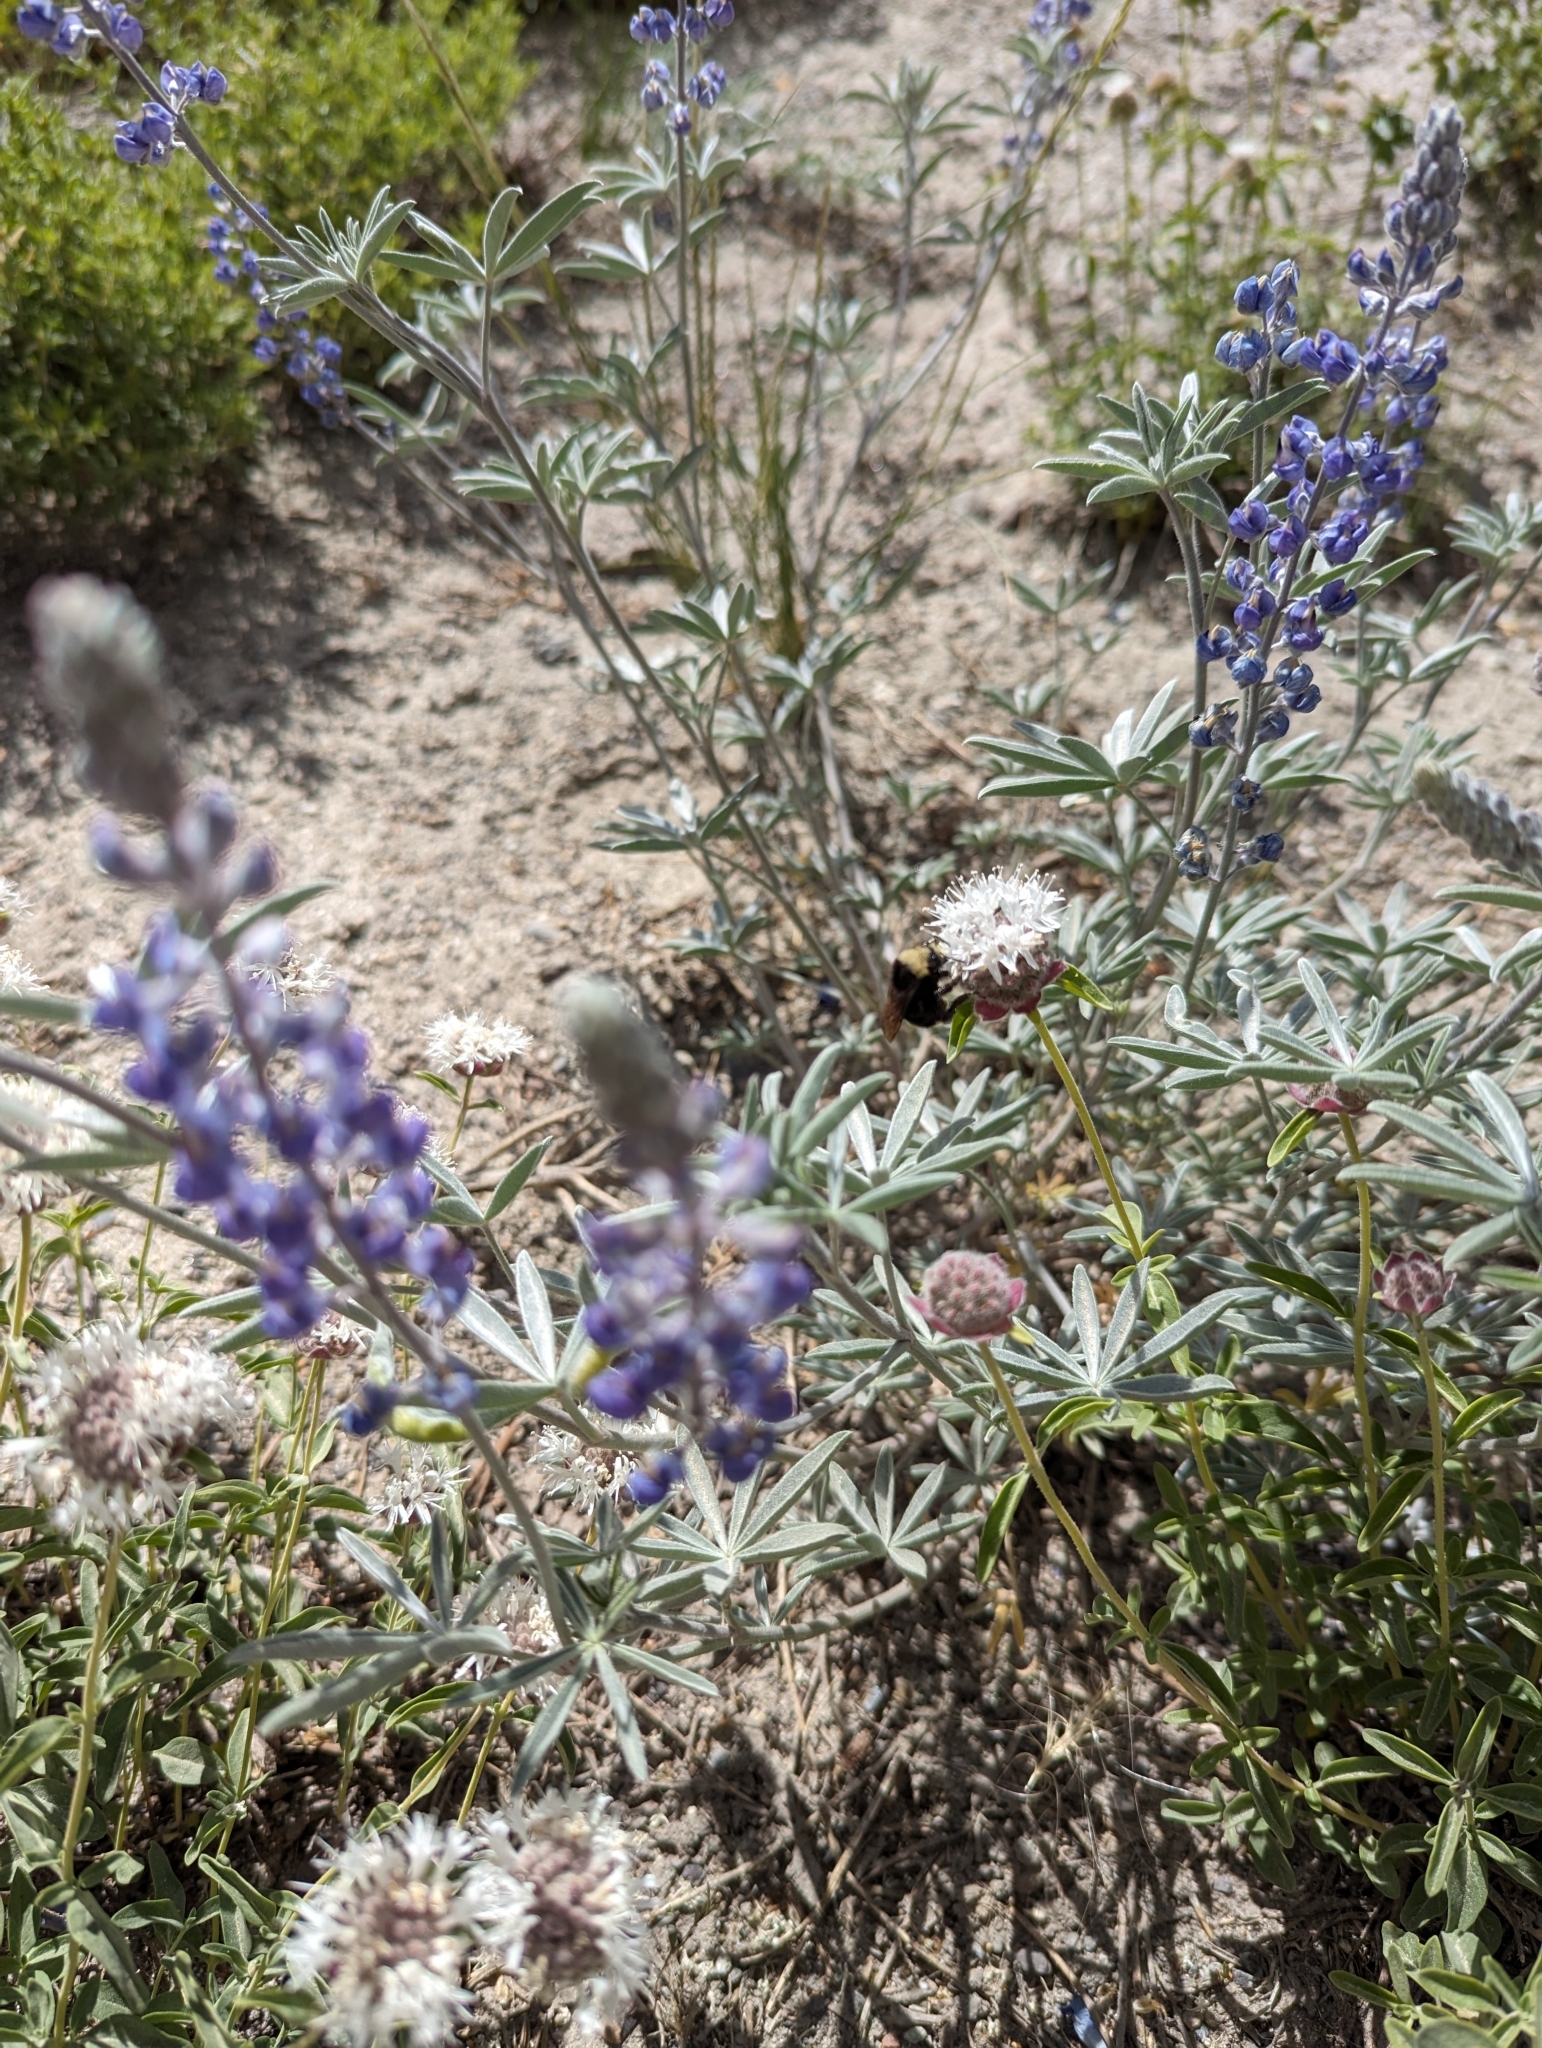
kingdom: Plantae
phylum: Tracheophyta
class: Magnoliopsida
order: Fabales
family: Fabaceae
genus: Lupinus
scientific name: Lupinus meionanthus
